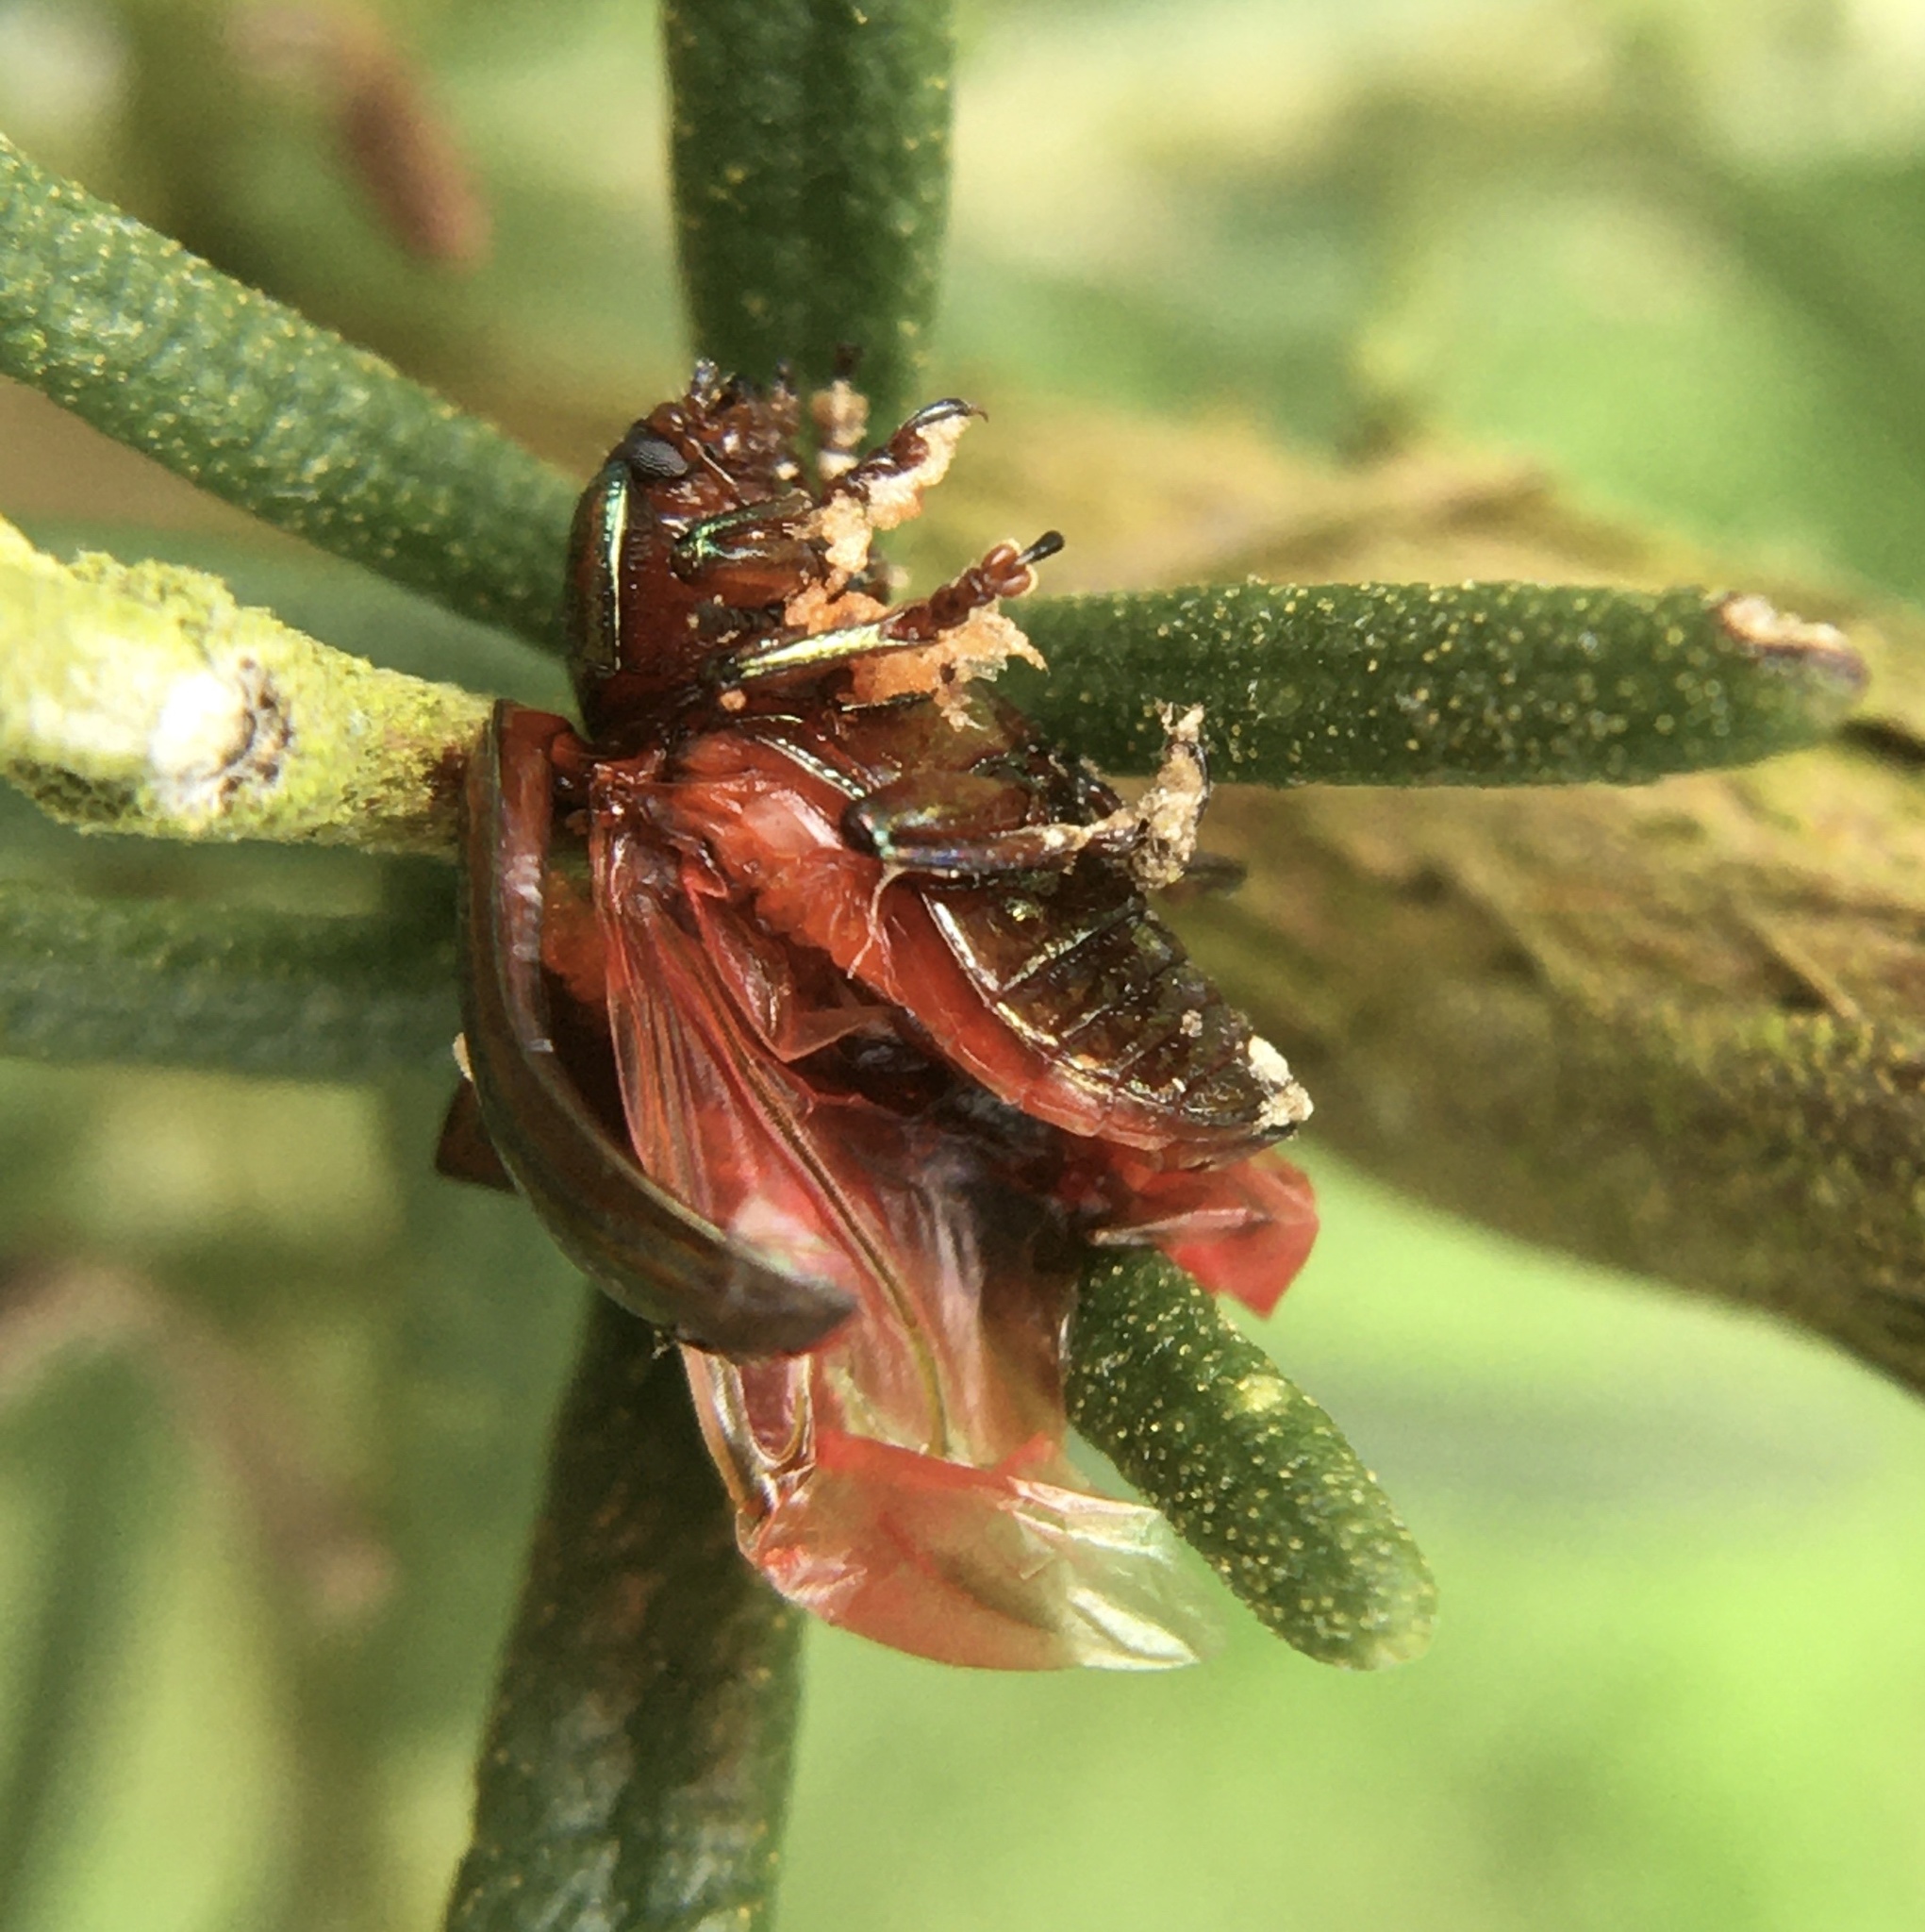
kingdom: Animalia
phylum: Arthropoda
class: Insecta
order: Coleoptera
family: Chrysomelidae
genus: Chrysolina
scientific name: Chrysolina americana
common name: Rosemary beetle
